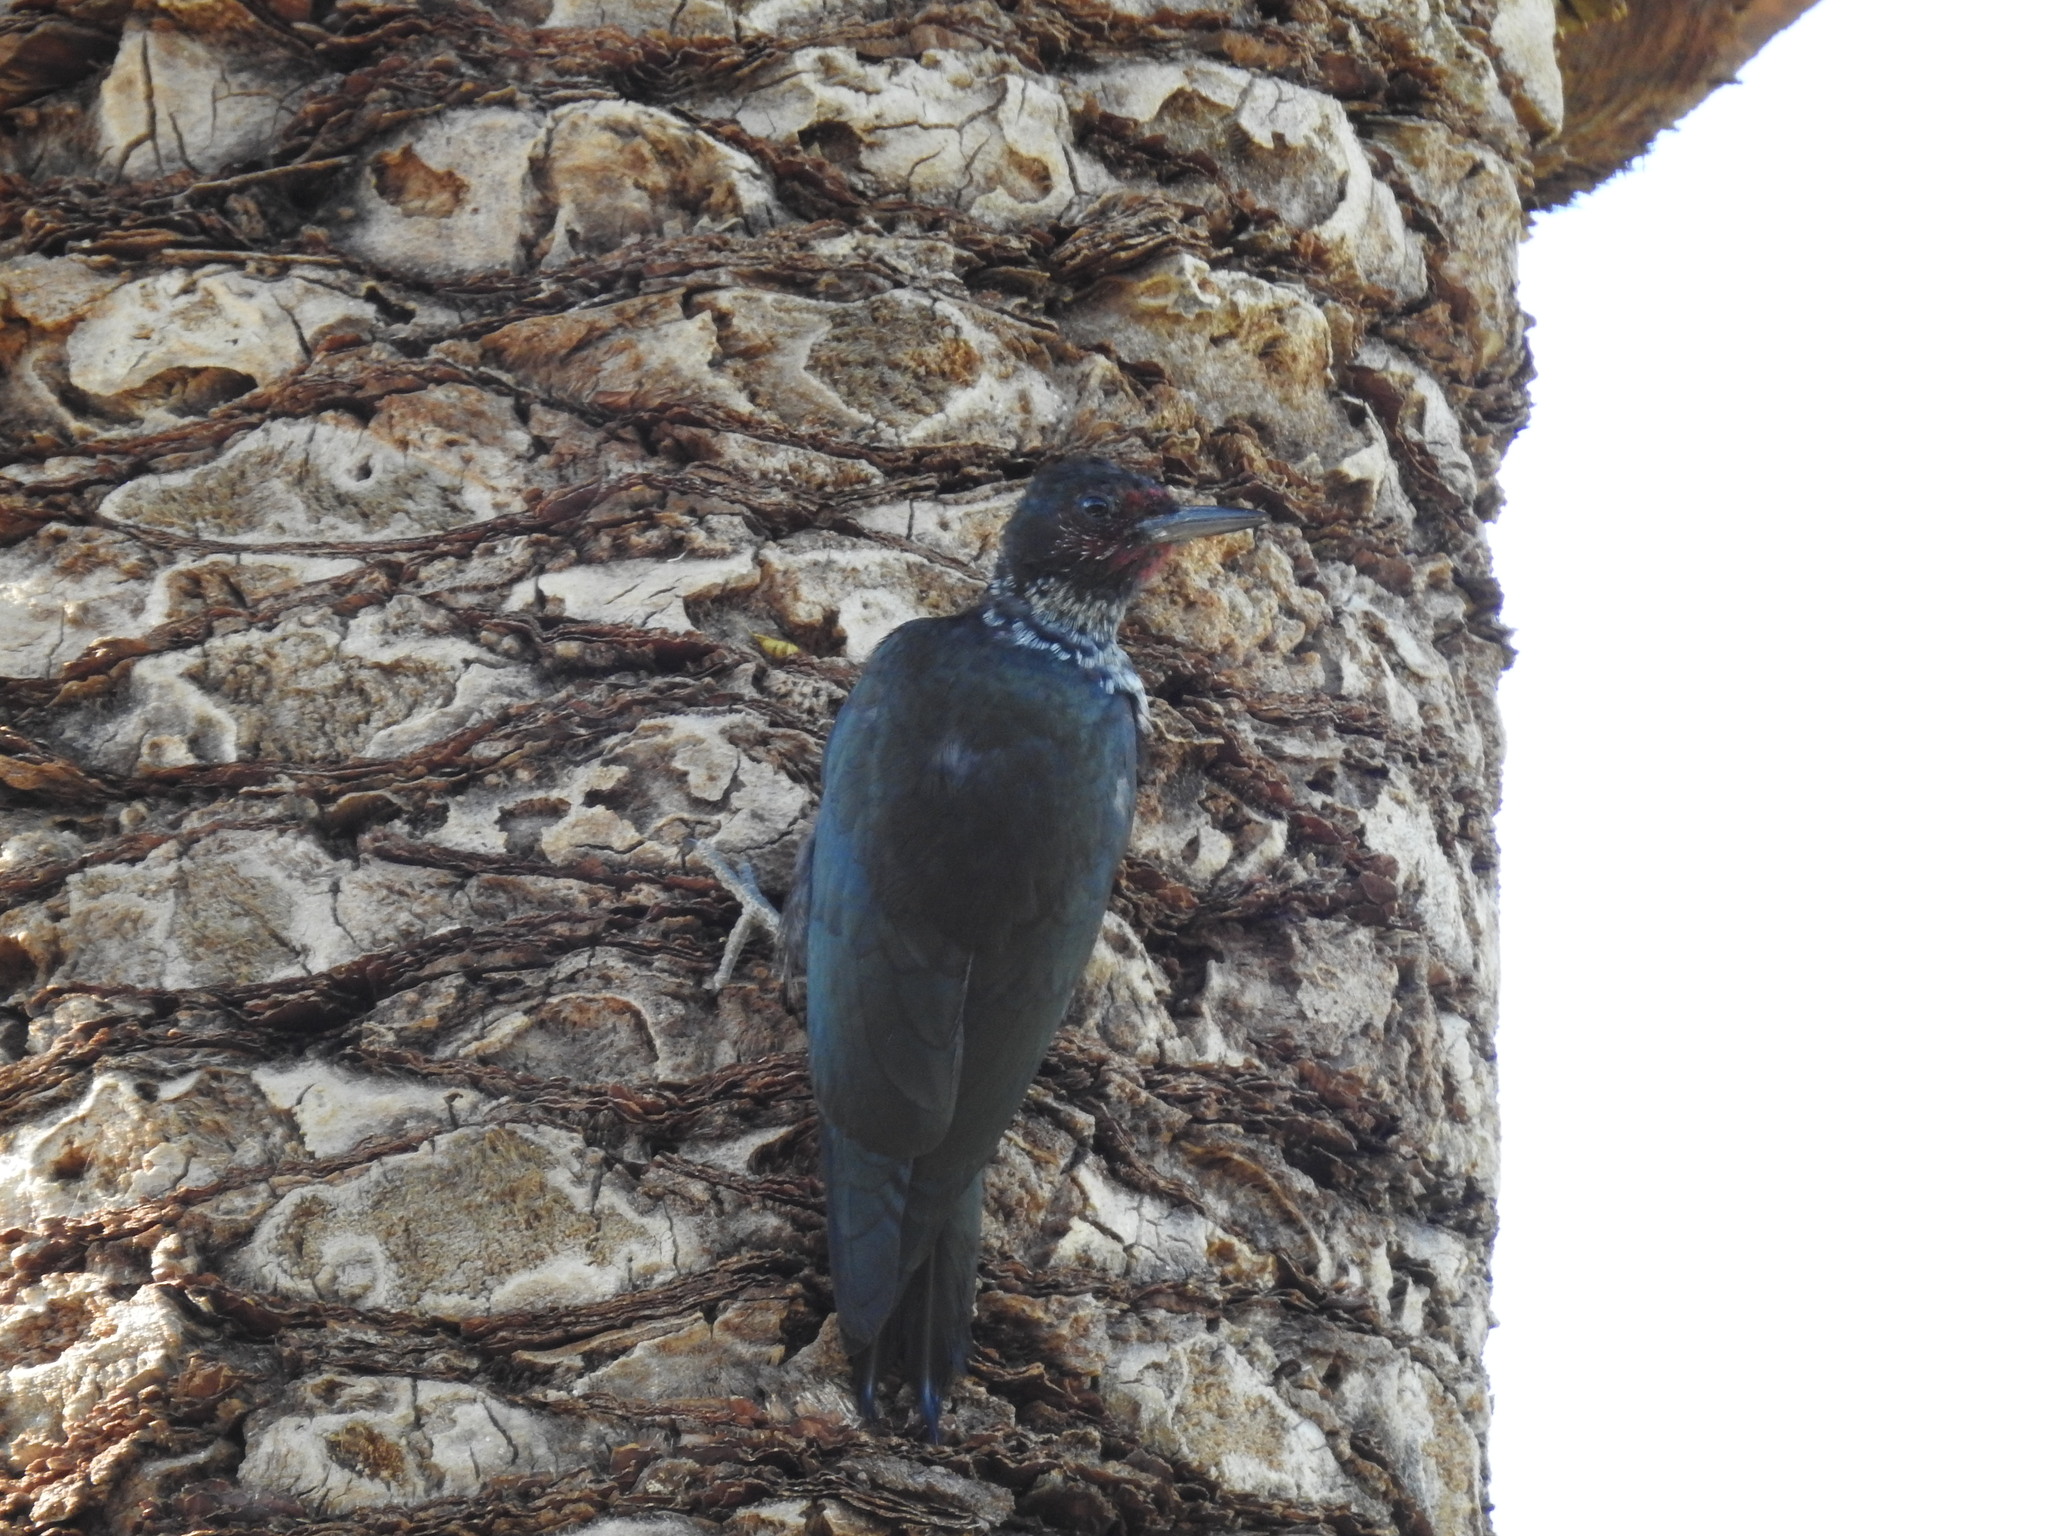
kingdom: Animalia
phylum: Chordata
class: Aves
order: Piciformes
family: Picidae
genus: Melanerpes
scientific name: Melanerpes lewis
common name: Lewis's woodpecker
